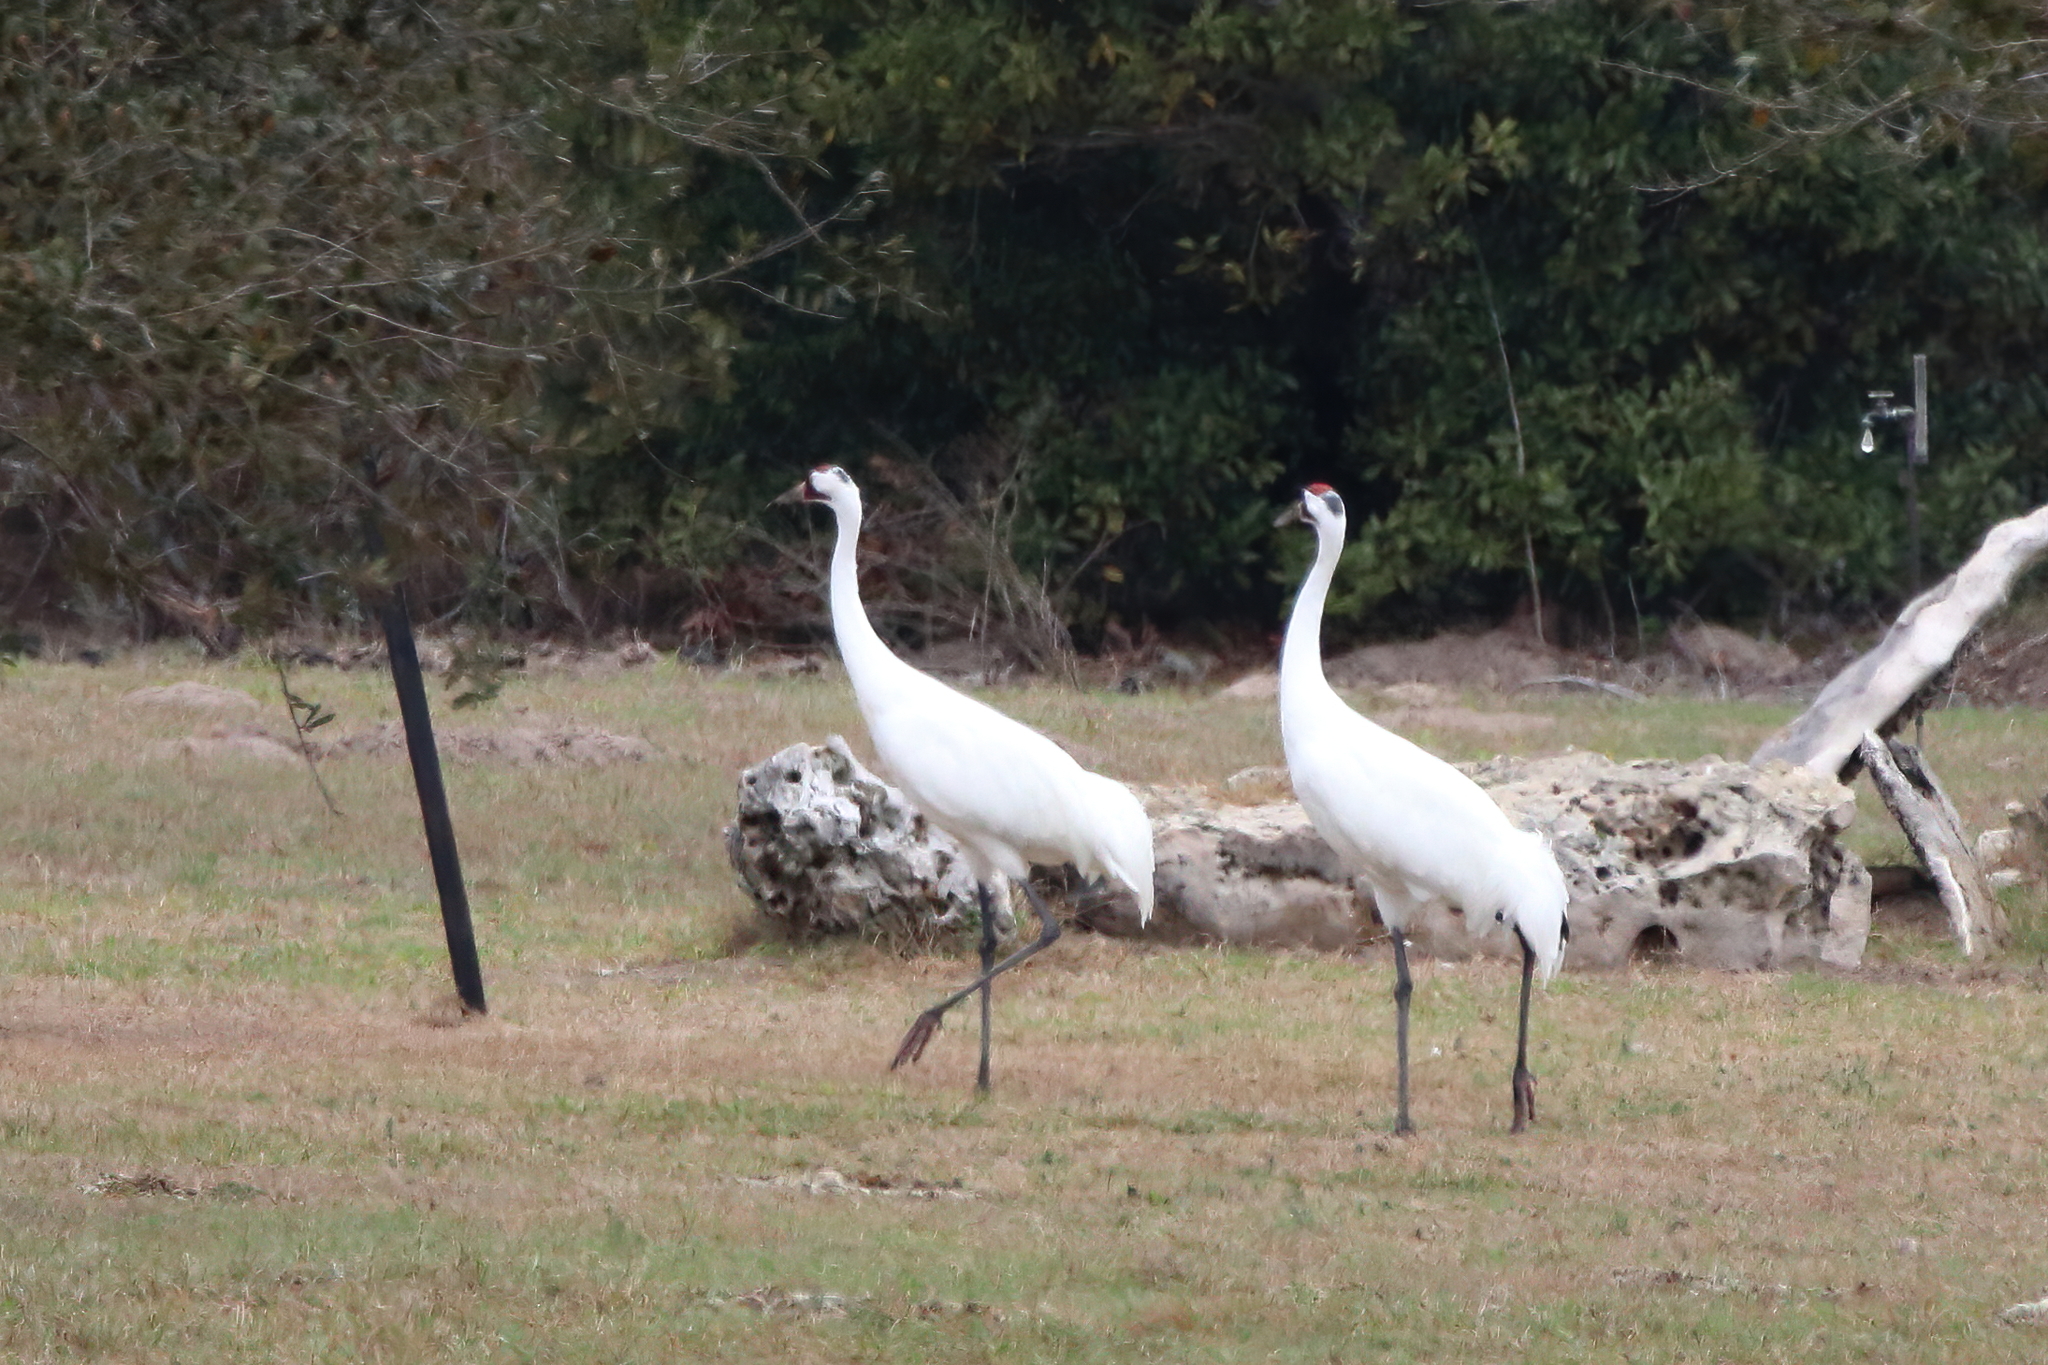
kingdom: Animalia
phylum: Chordata
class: Aves
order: Gruiformes
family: Gruidae
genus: Grus
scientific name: Grus americana
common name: Whooping crane
